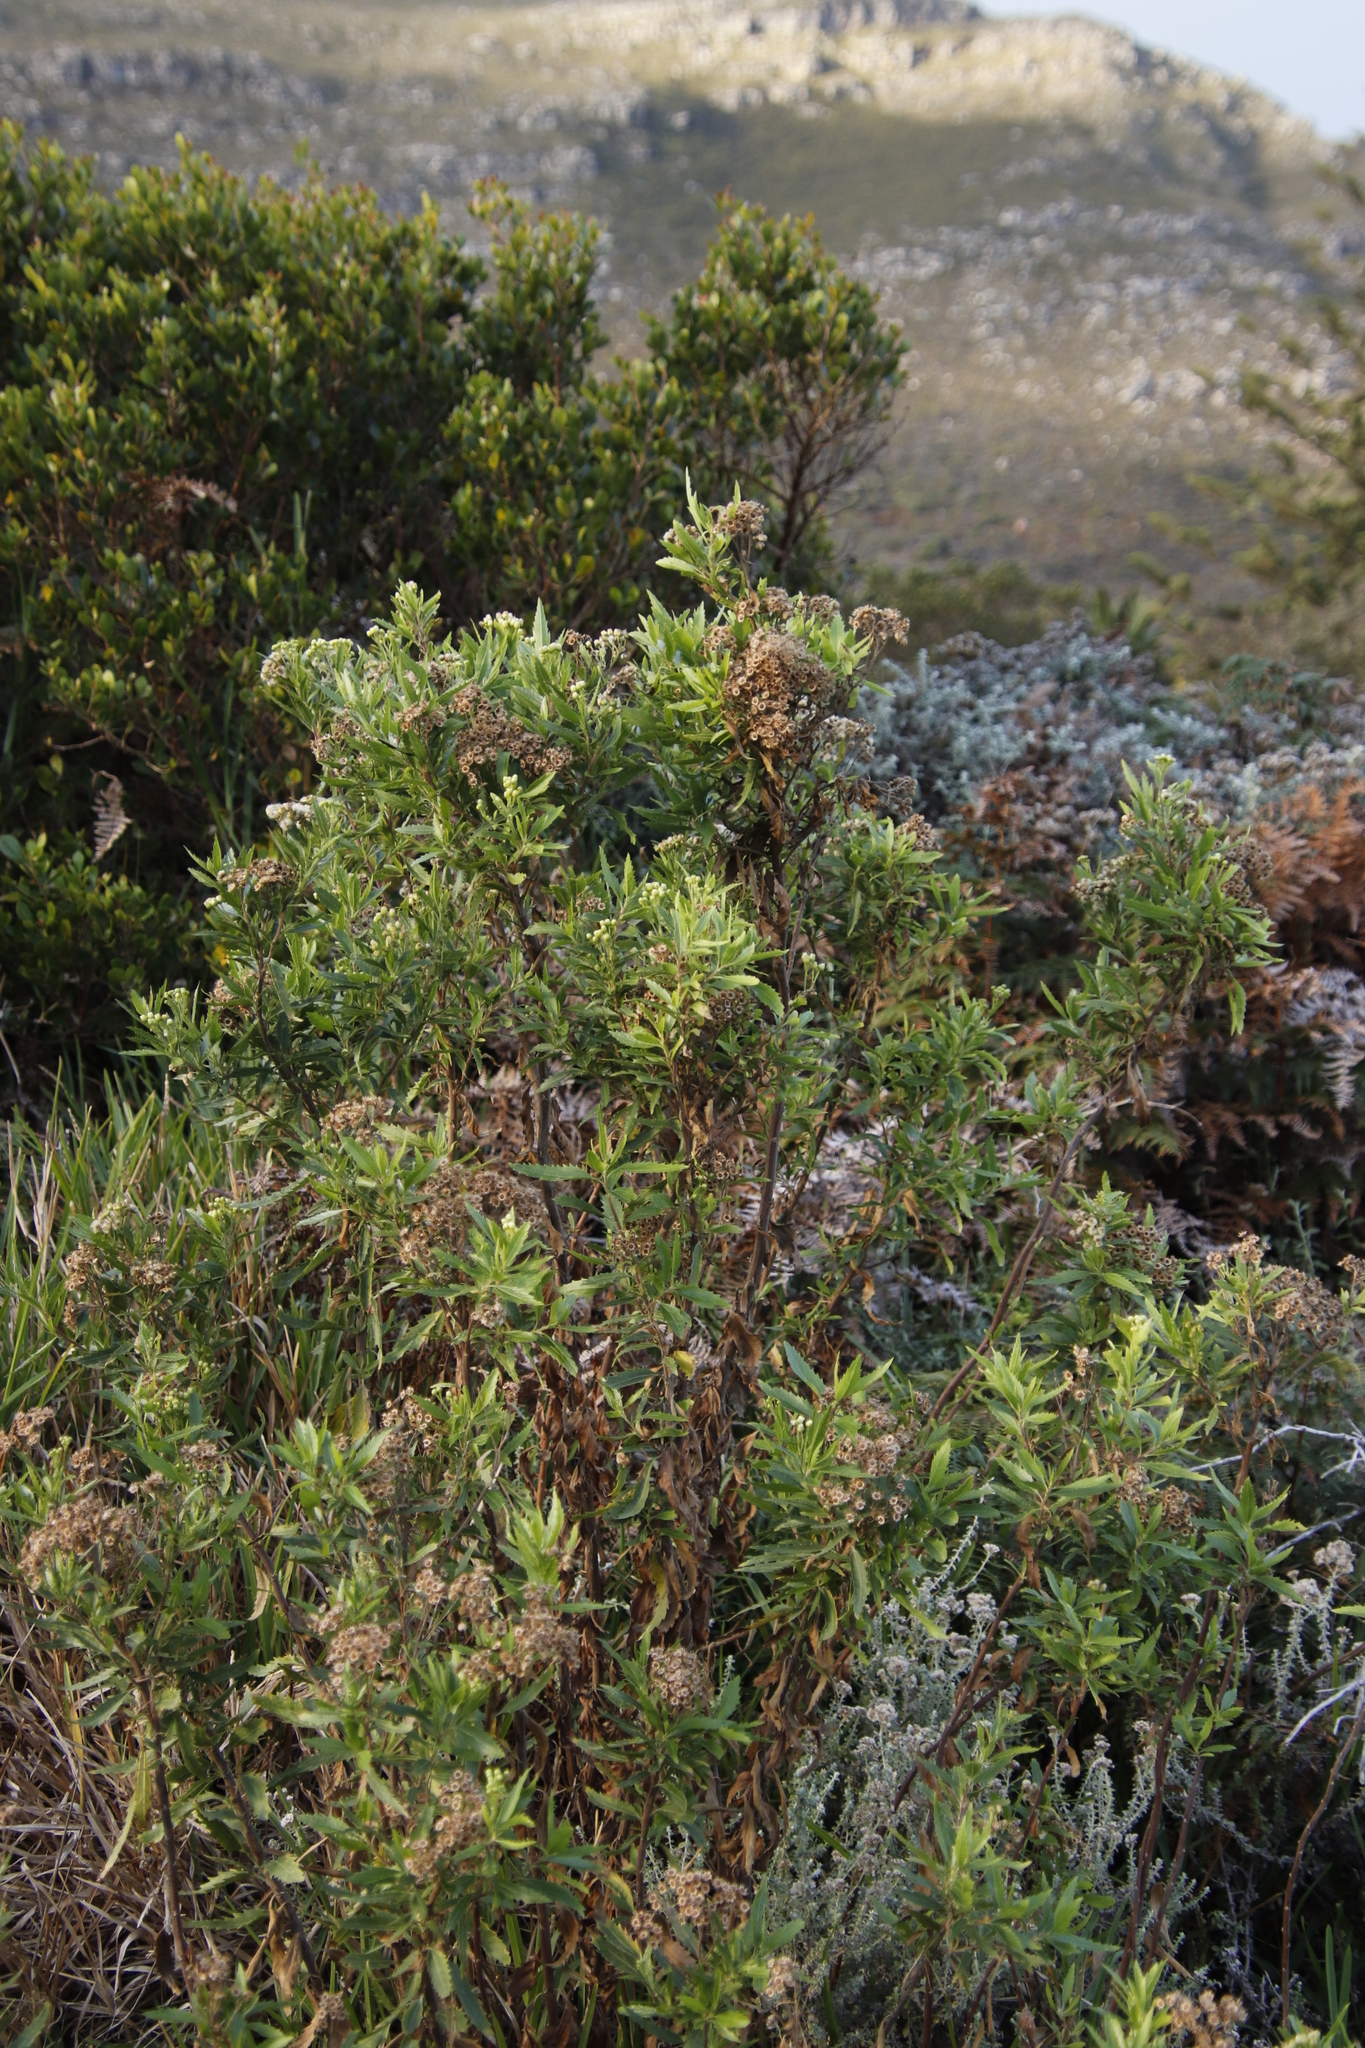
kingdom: Plantae
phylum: Tracheophyta
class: Magnoliopsida
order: Asterales
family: Asteraceae
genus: Nidorella
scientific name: Nidorella ivifolia
